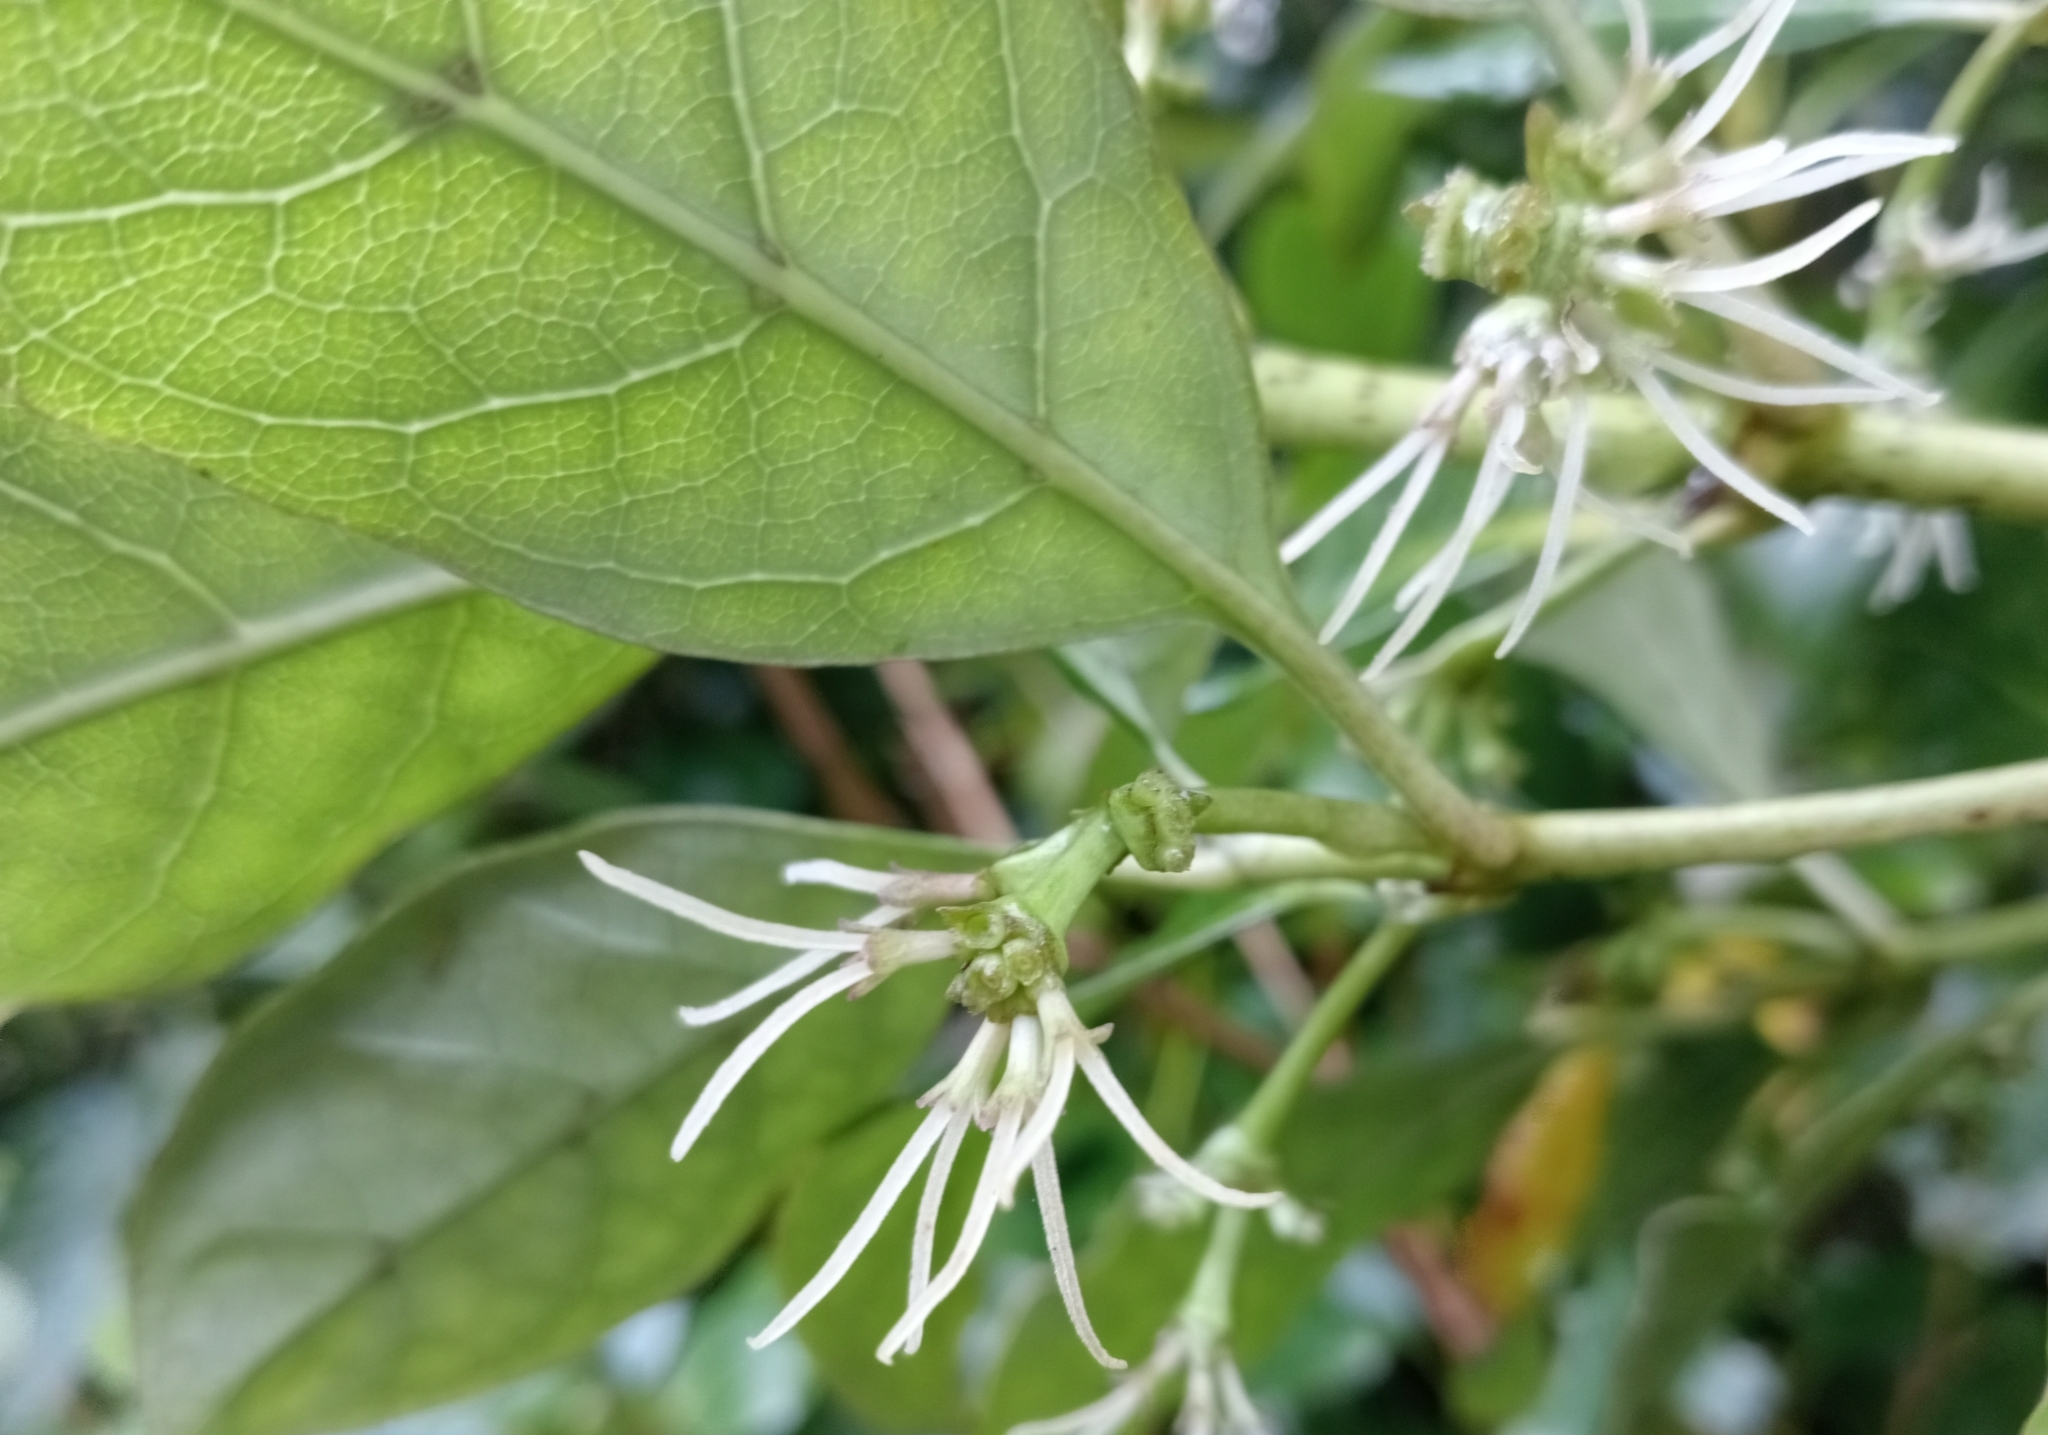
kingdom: Plantae
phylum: Tracheophyta
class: Magnoliopsida
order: Gentianales
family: Rubiaceae
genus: Coprosma
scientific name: Coprosma autumnalis
